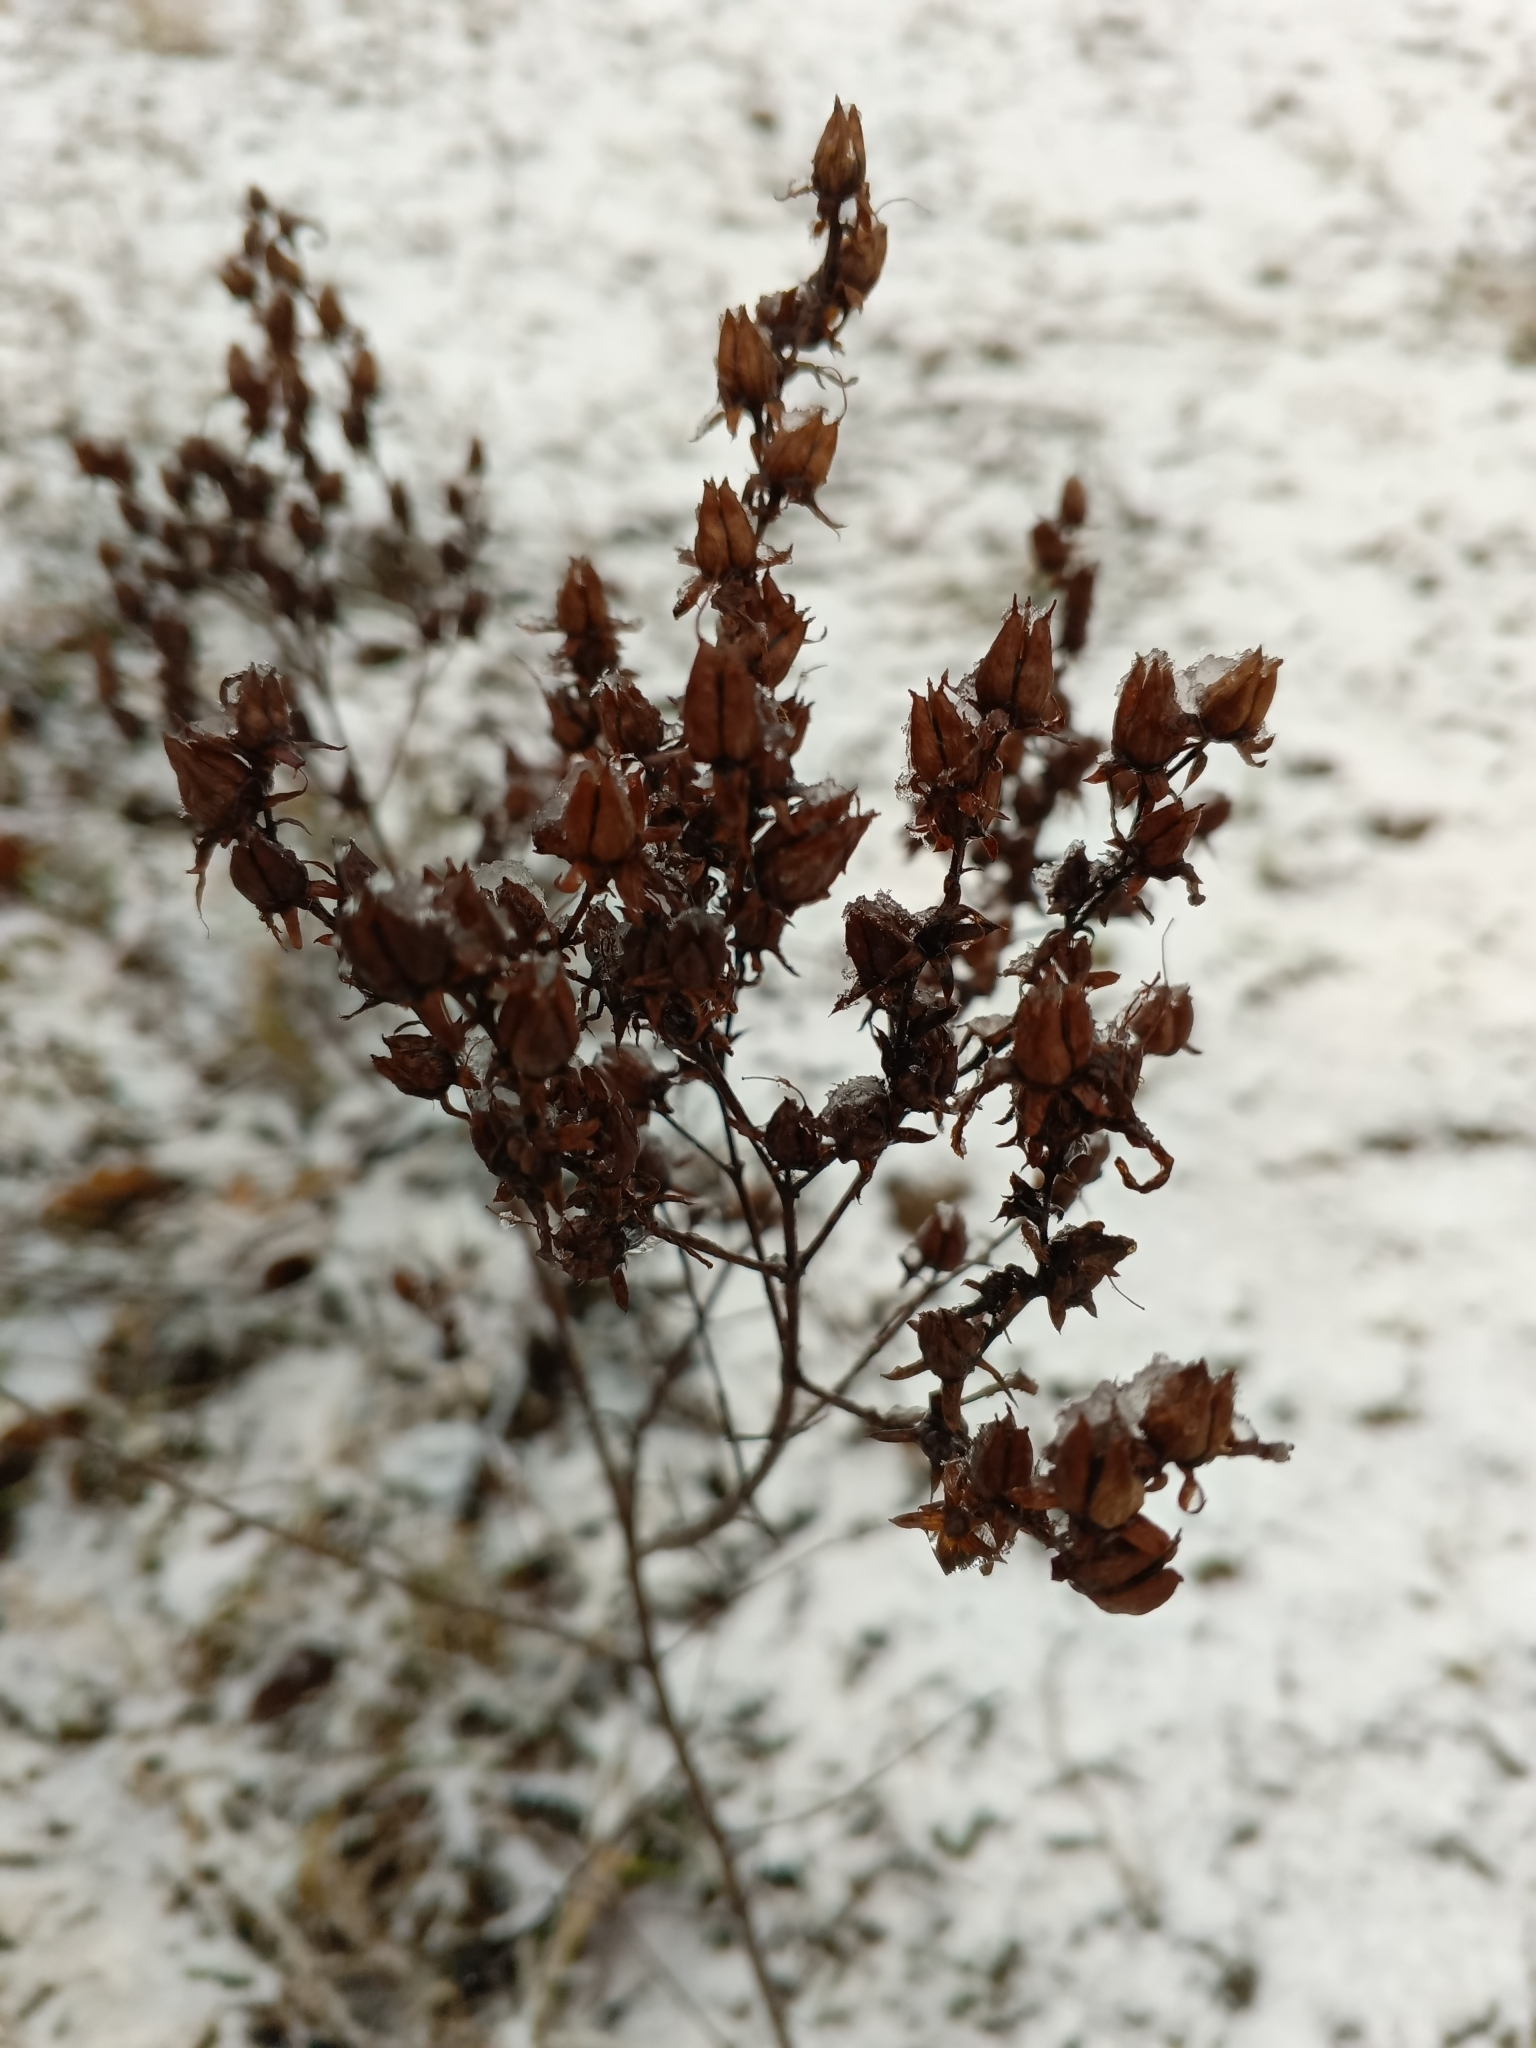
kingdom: Plantae
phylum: Tracheophyta
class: Magnoliopsida
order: Malpighiales
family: Hypericaceae
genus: Hypericum
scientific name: Hypericum perforatum
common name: Common st. johnswort
